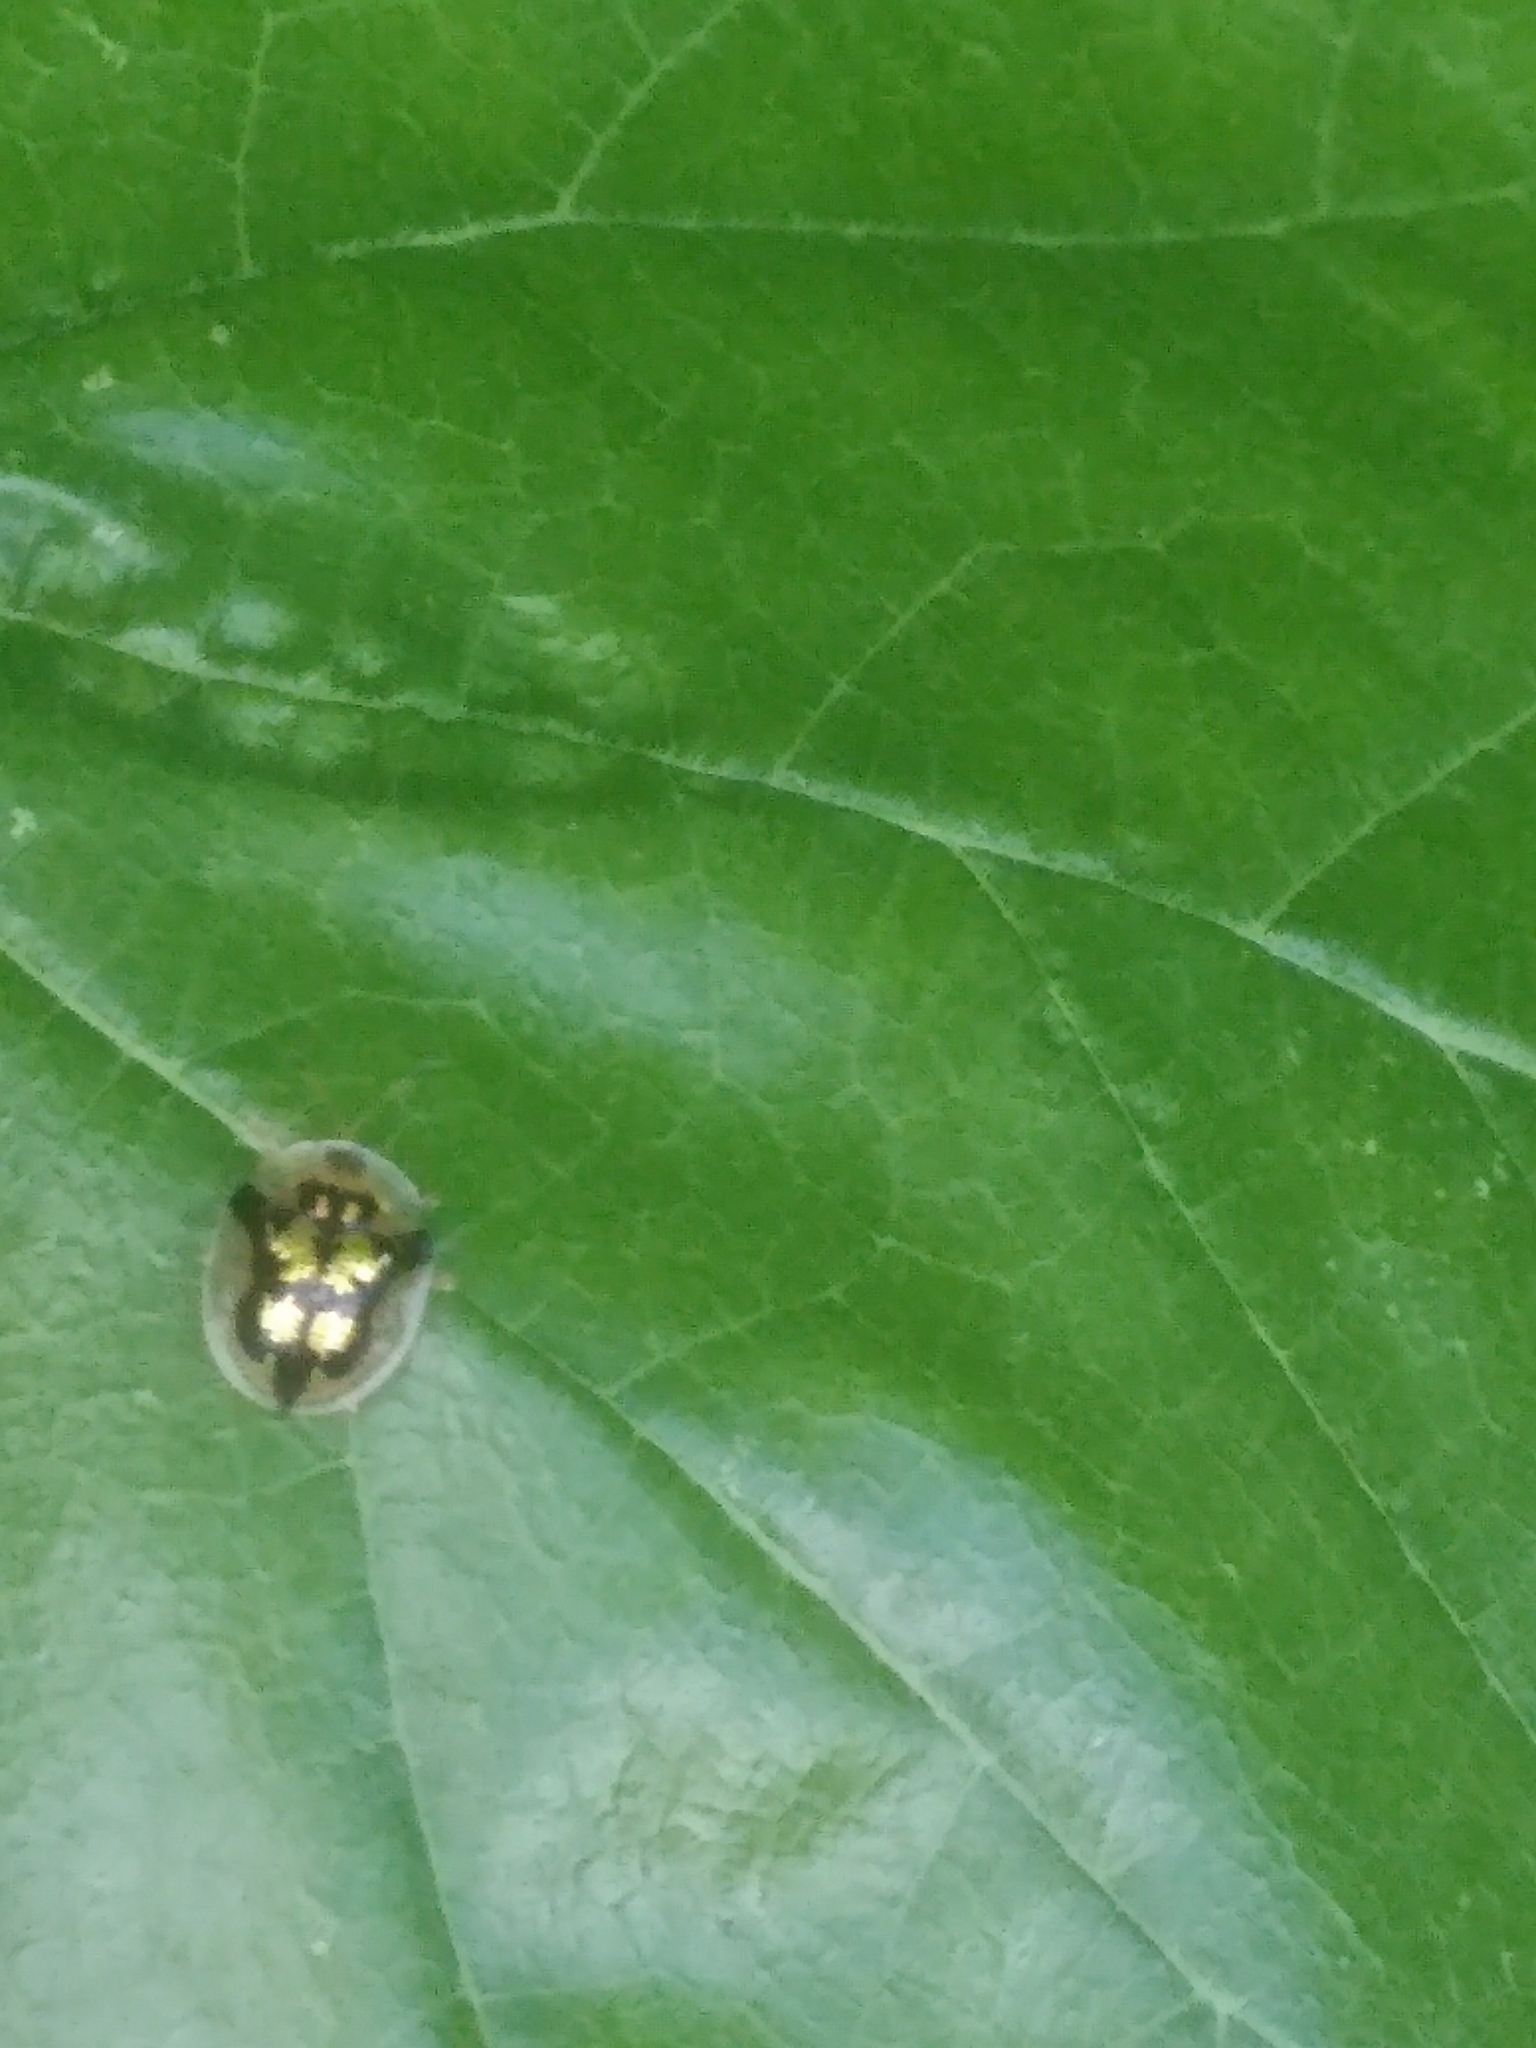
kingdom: Animalia
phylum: Arthropoda
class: Insecta
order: Coleoptera
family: Chrysomelidae
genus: Deloyala
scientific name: Deloyala guttata
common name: Mottled tortoise beetle
